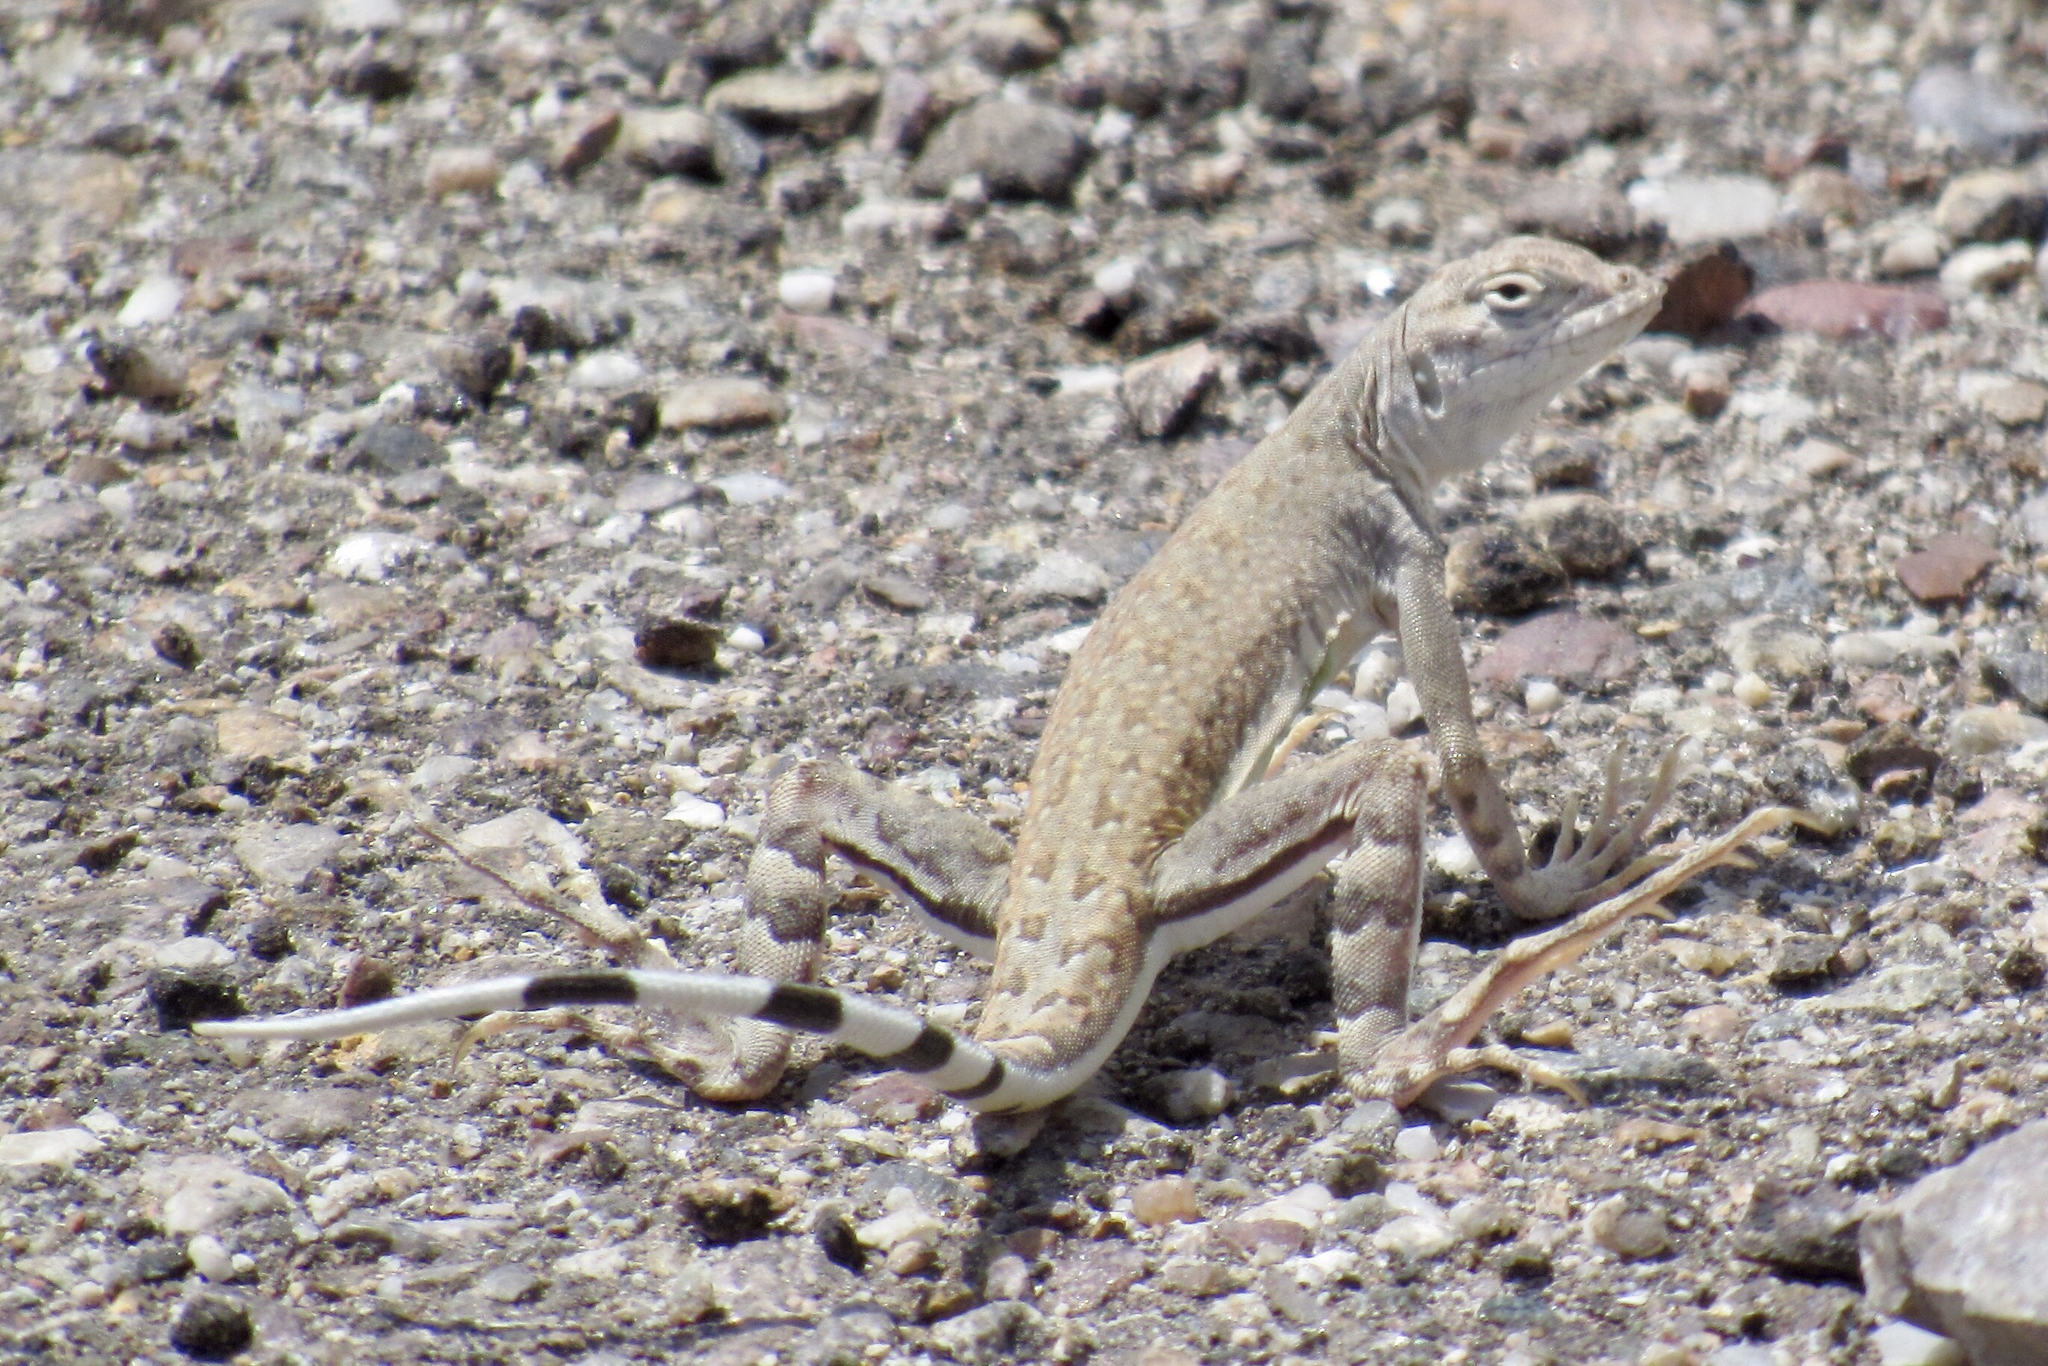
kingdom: Animalia
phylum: Chordata
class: Squamata
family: Phrynosomatidae
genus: Callisaurus
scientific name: Callisaurus draconoides
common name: Zebra-tailed lizard
